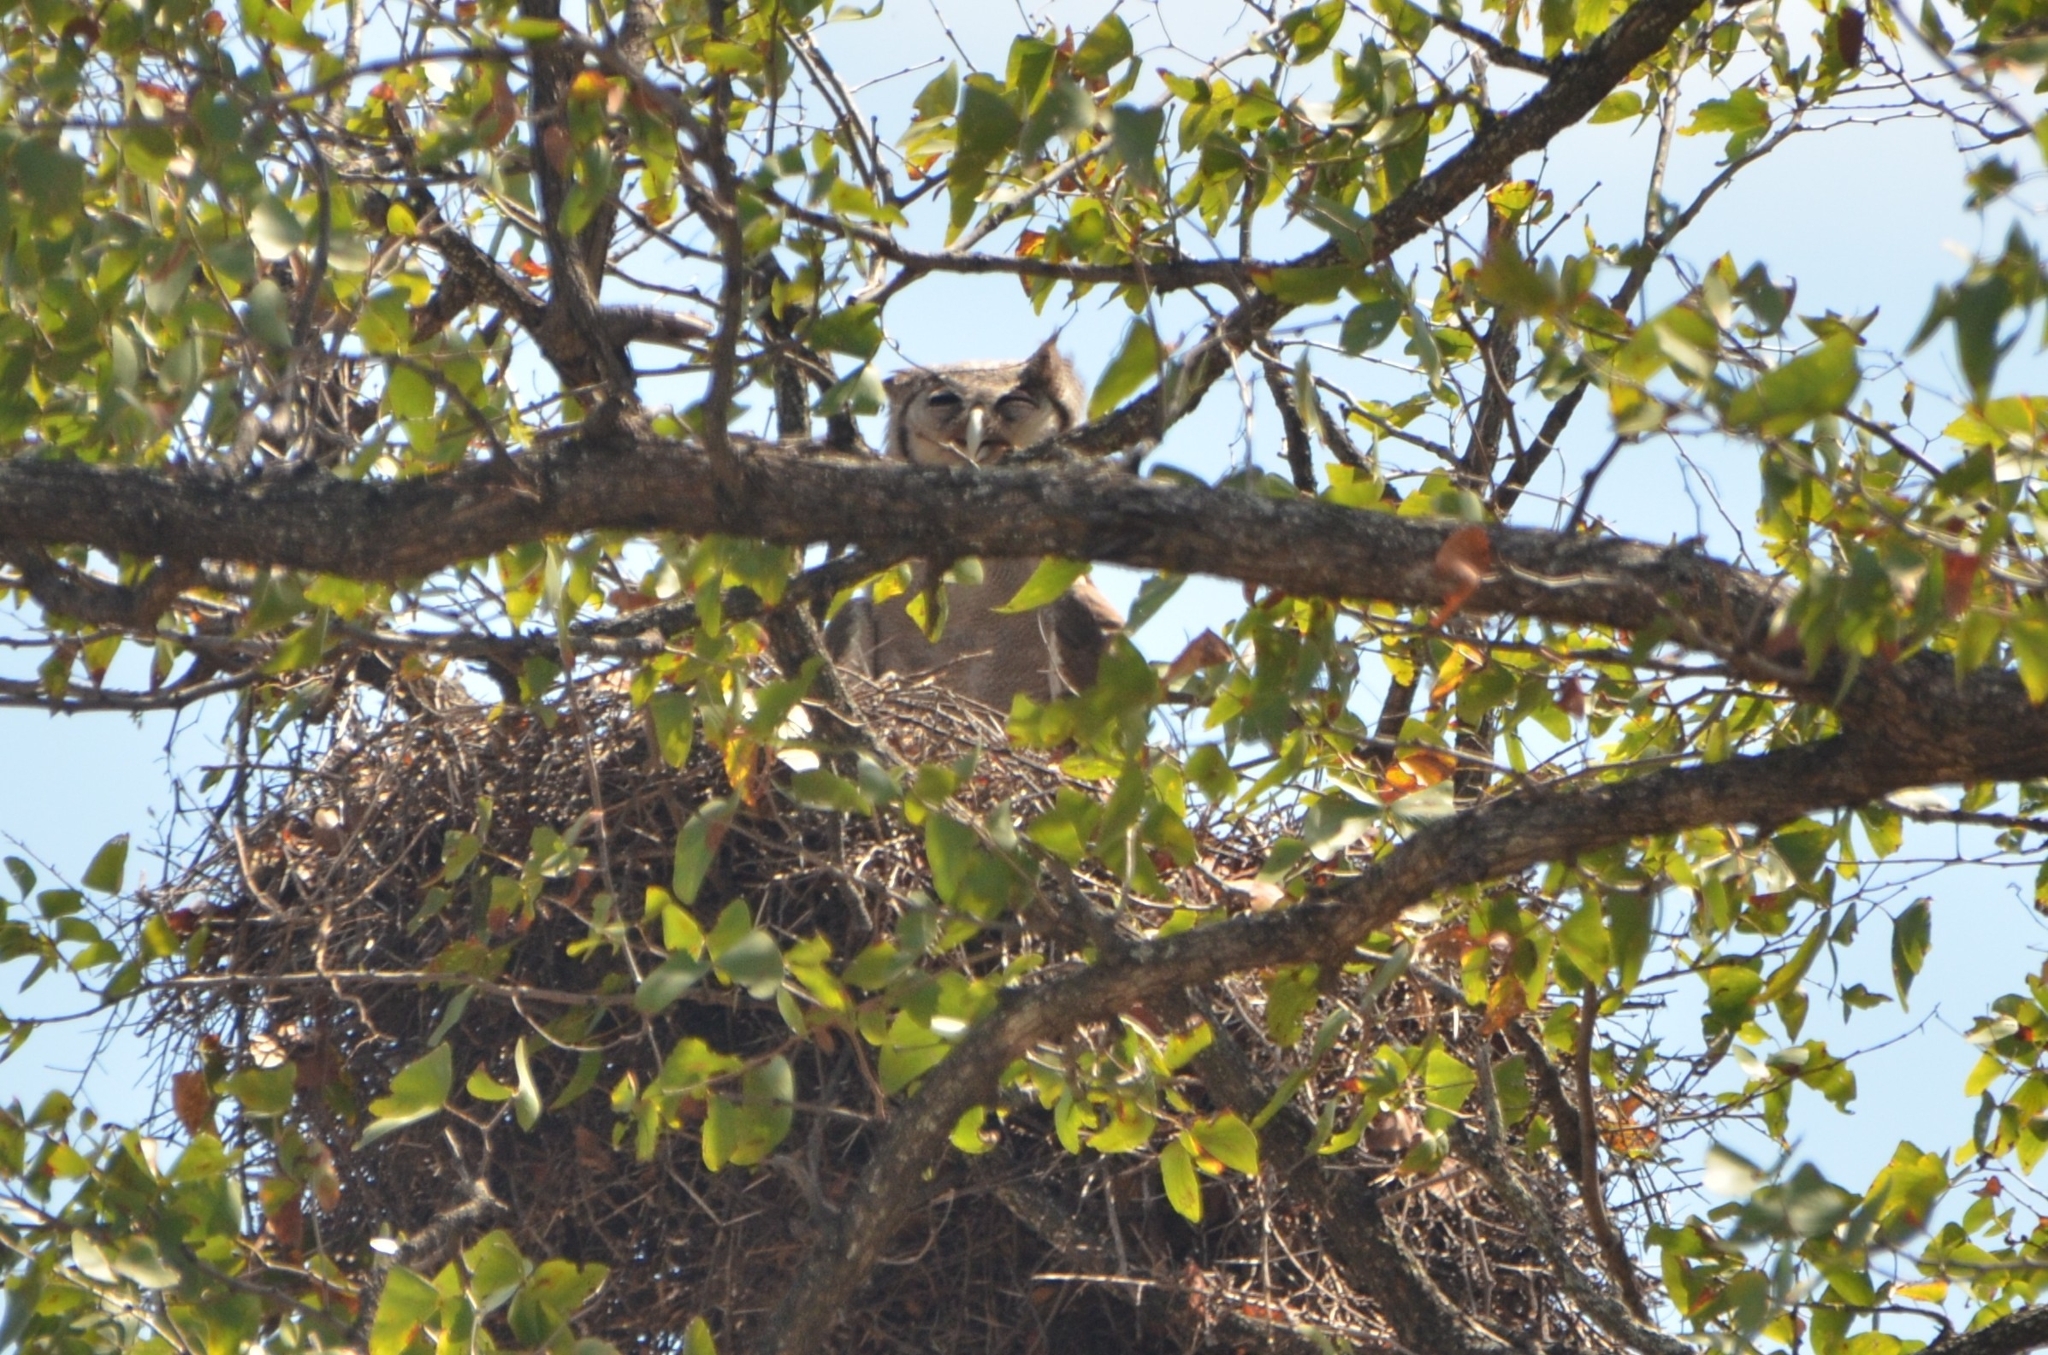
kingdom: Animalia
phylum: Chordata
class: Aves
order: Strigiformes
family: Strigidae
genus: Bubo
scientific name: Bubo lacteus
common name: Verreaux's eagle-owl
